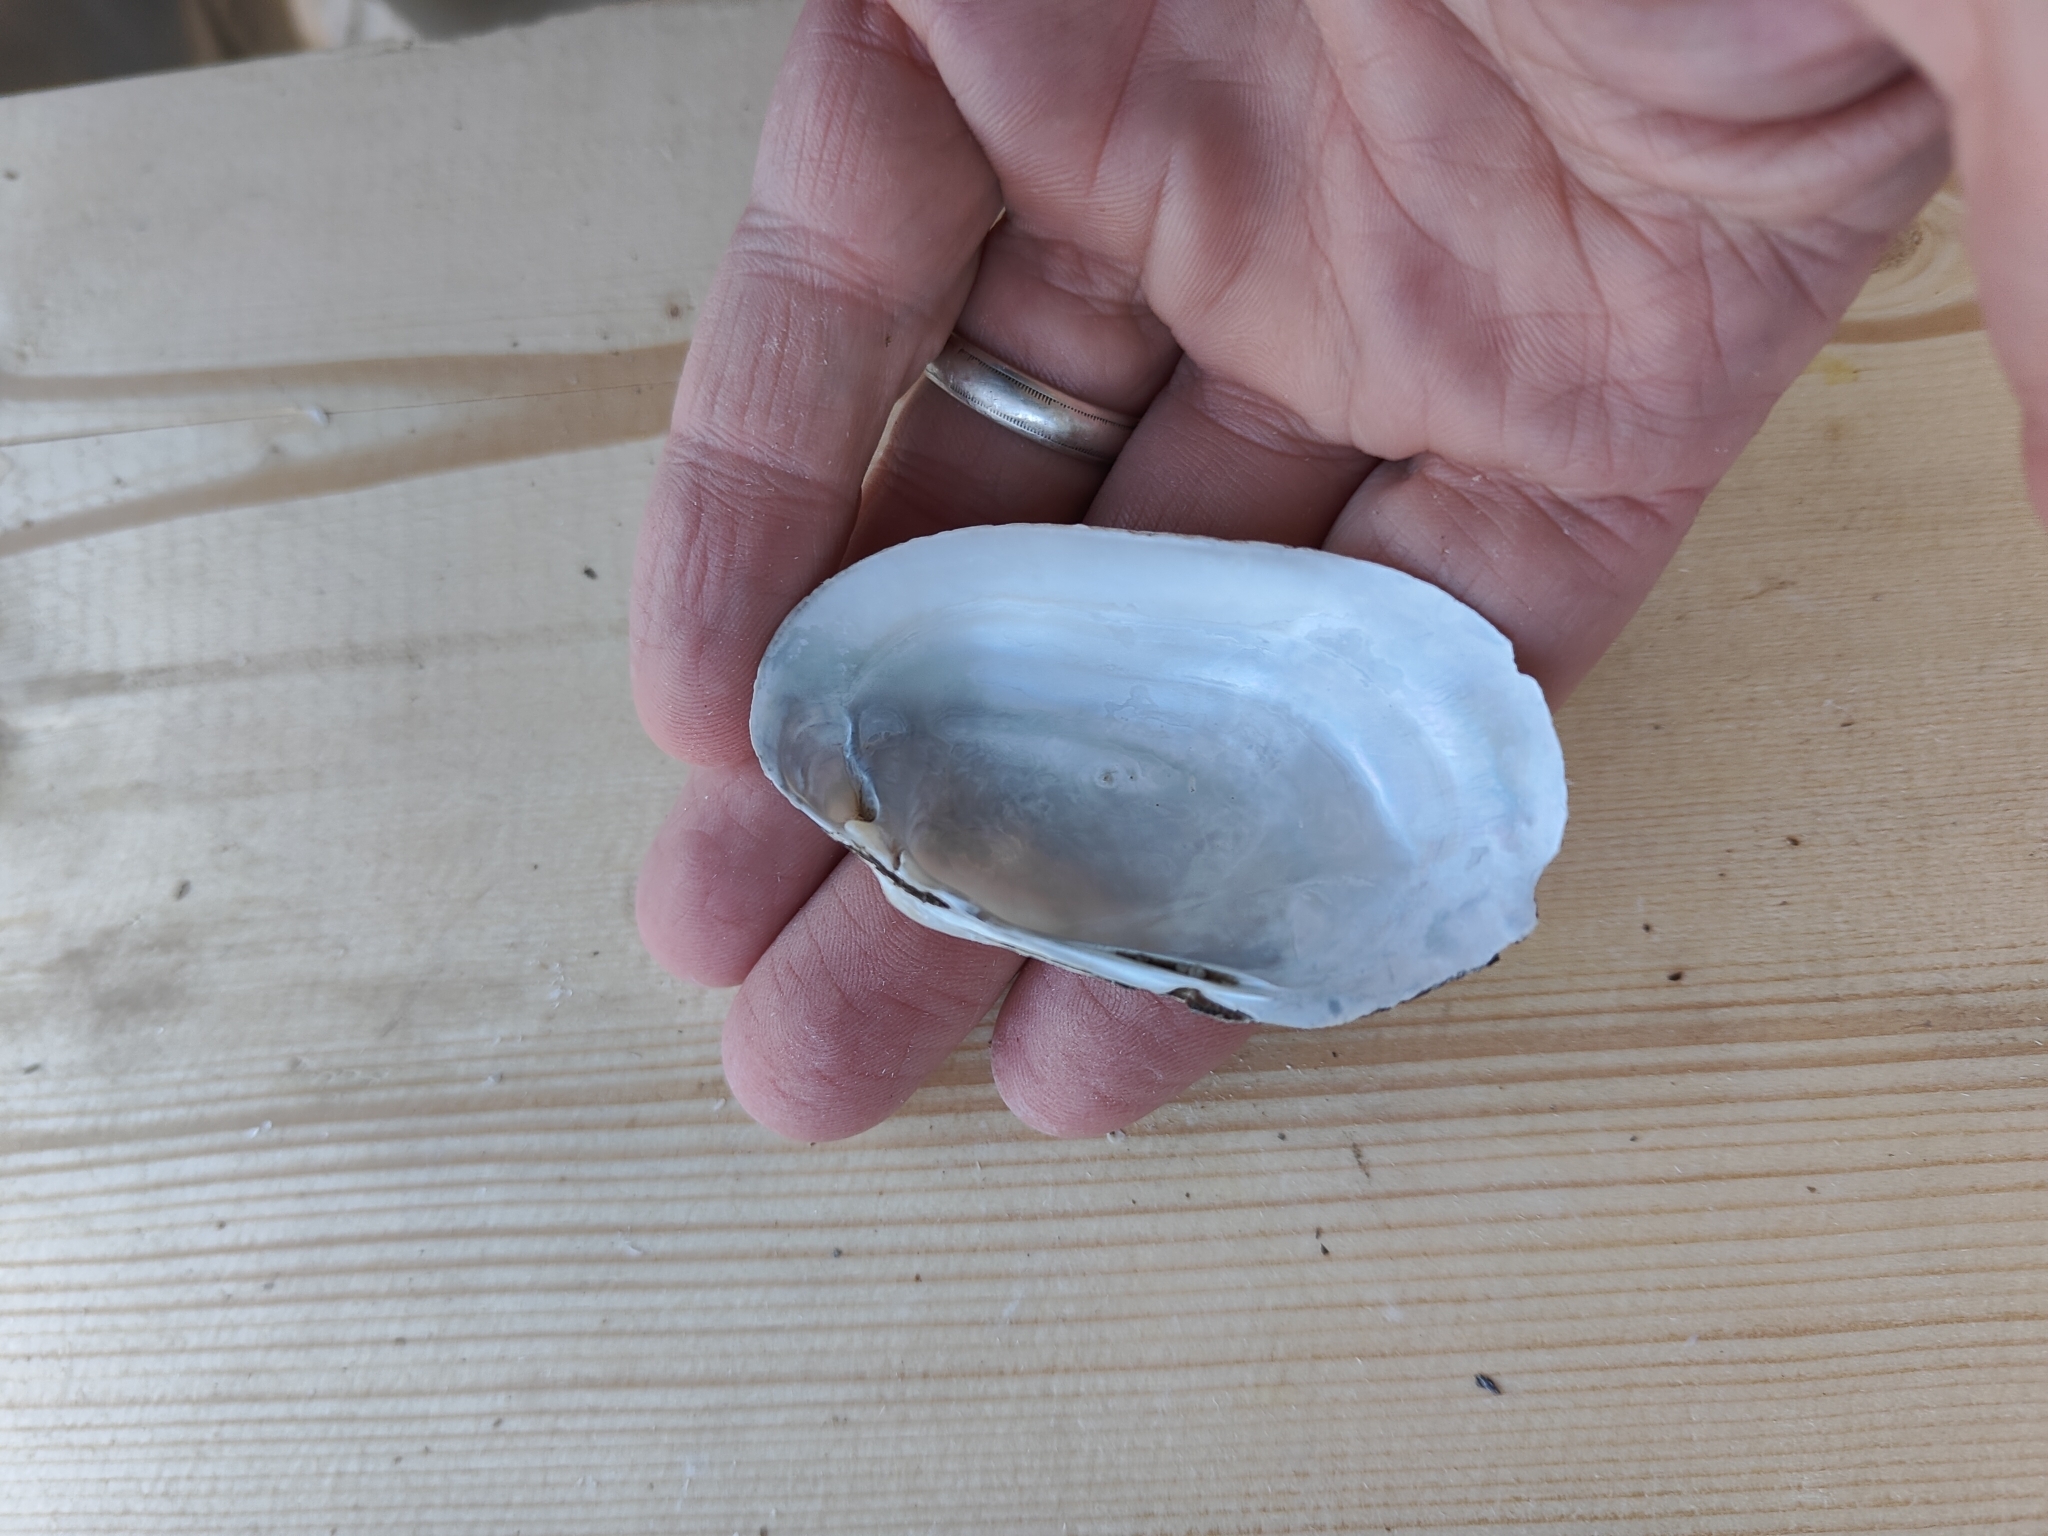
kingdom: Animalia
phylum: Mollusca
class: Bivalvia
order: Unionida
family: Unionidae
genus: Lampsilis
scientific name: Lampsilis siliquoidea
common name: Fatmucket
